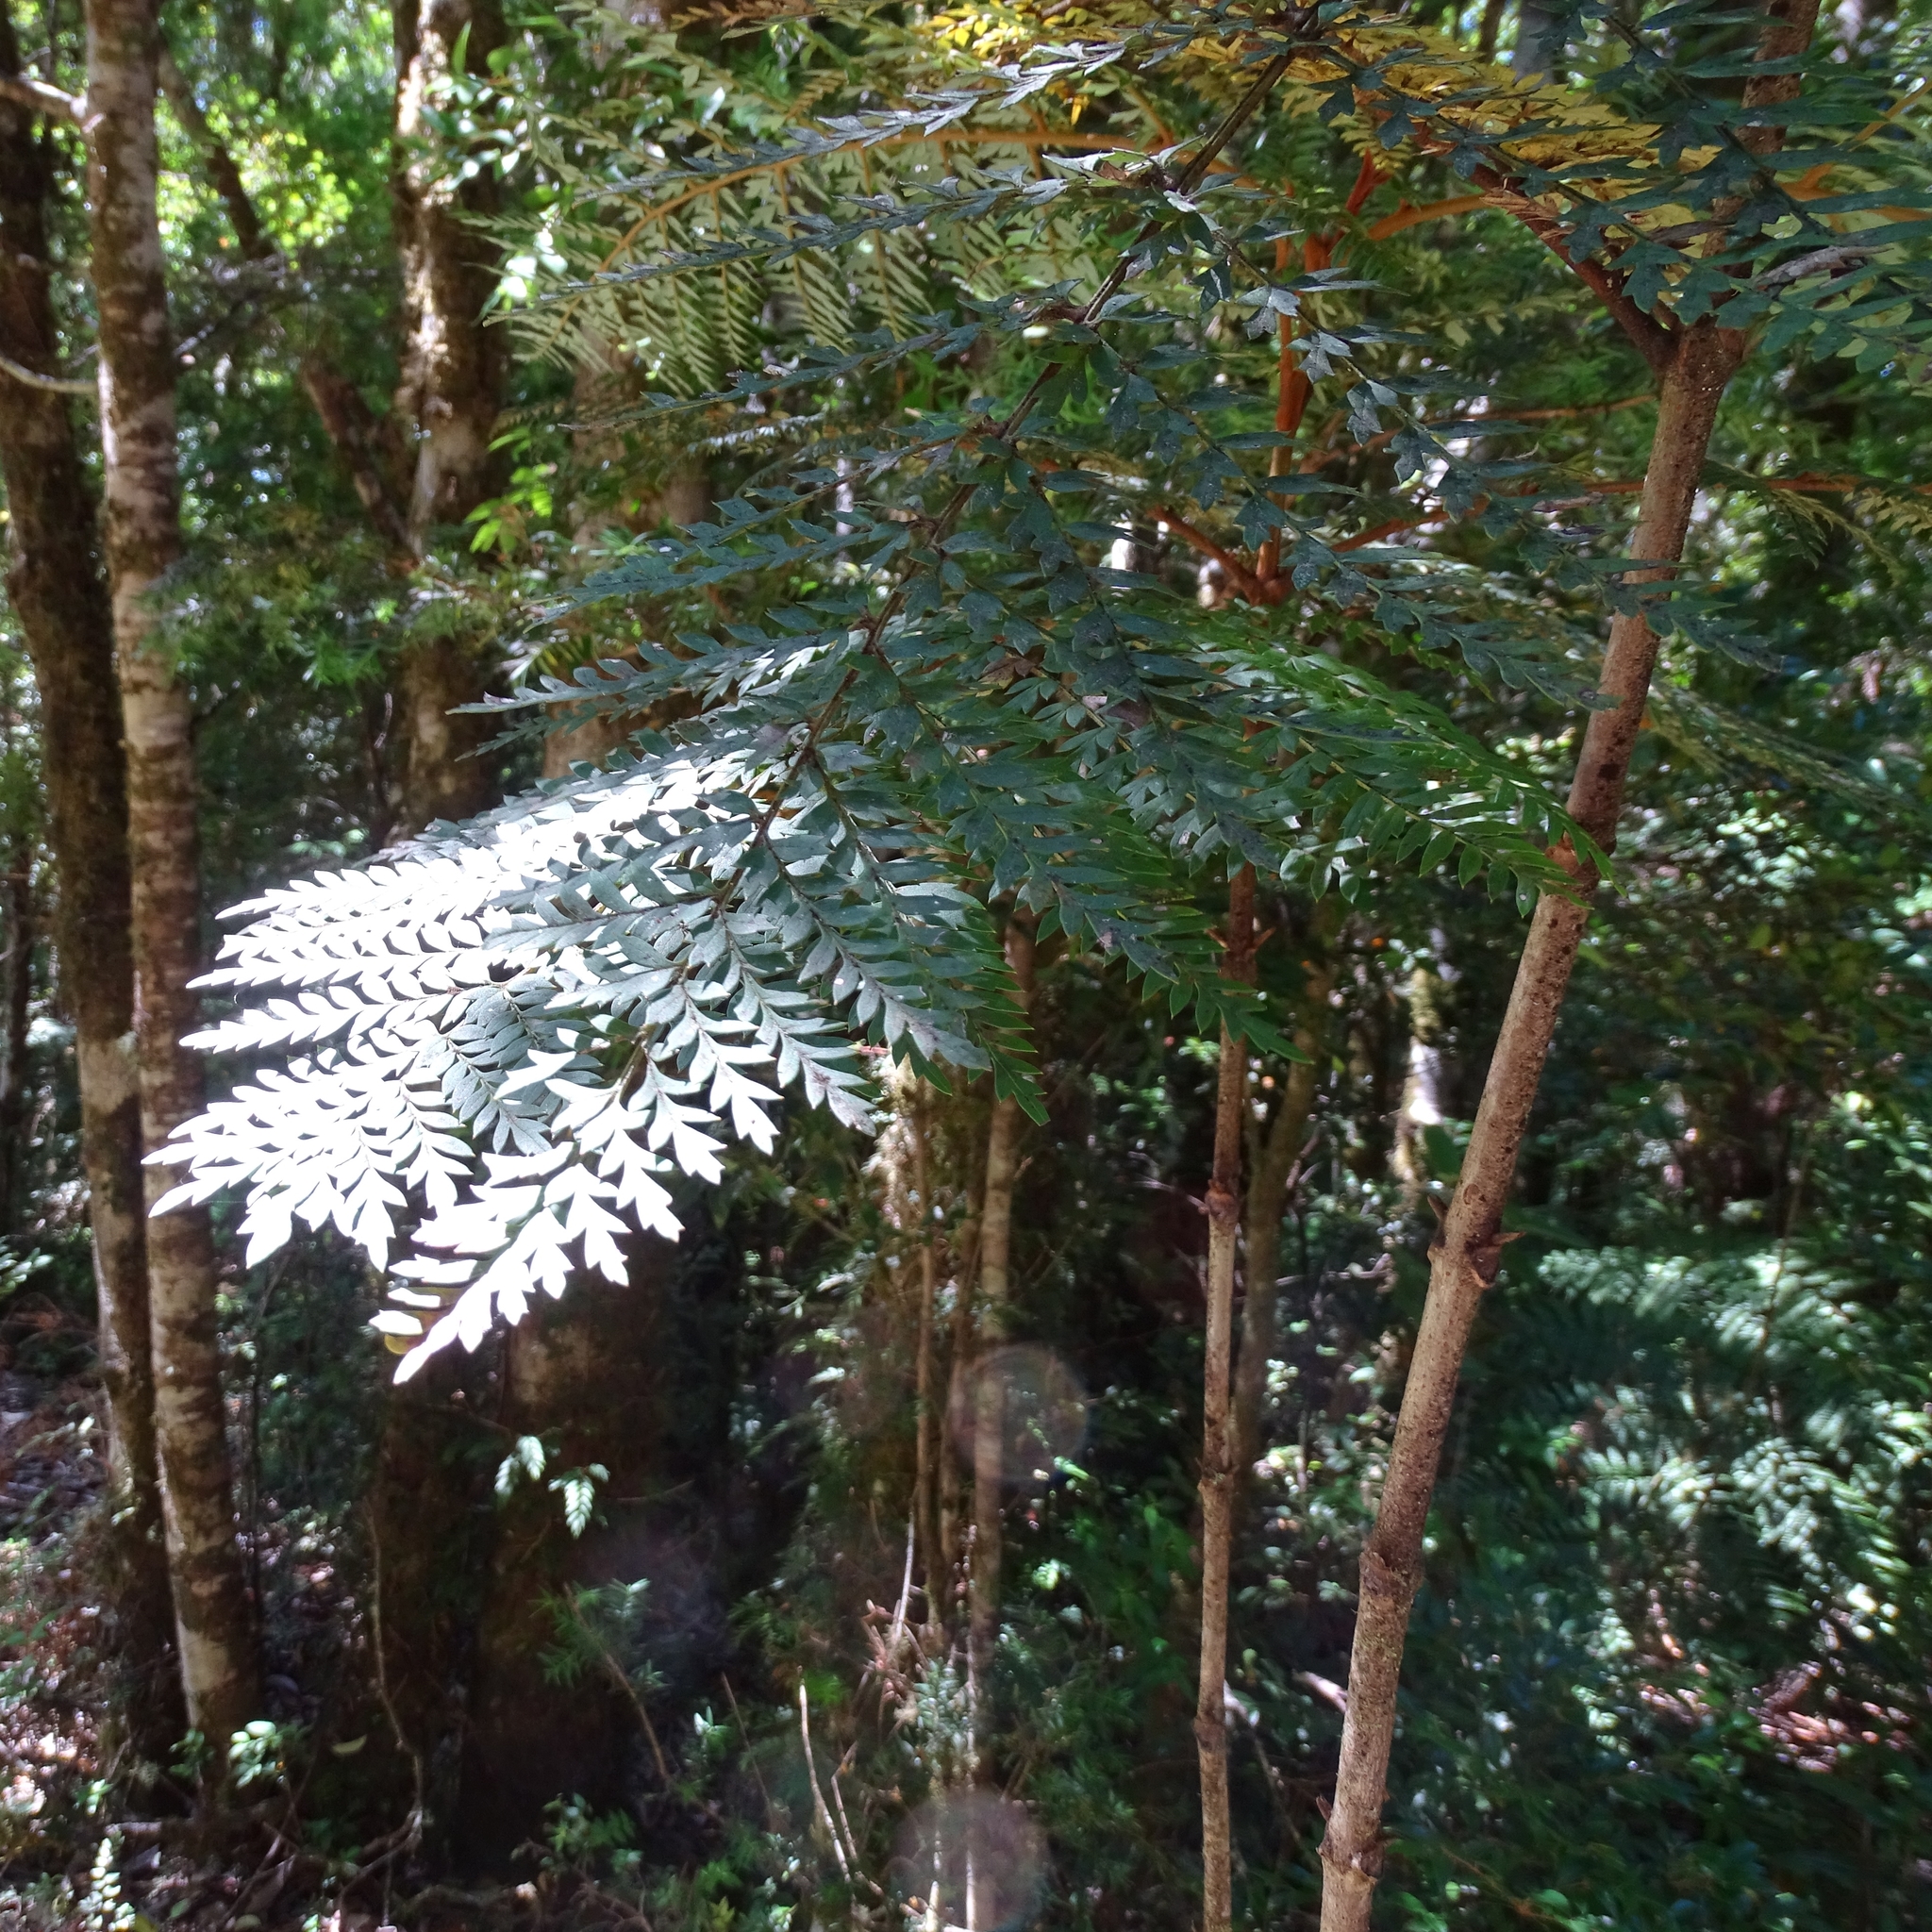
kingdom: Plantae
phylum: Tracheophyta
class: Magnoliopsida
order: Proteales
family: Proteaceae
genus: Lomatia
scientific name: Lomatia ferruginea
